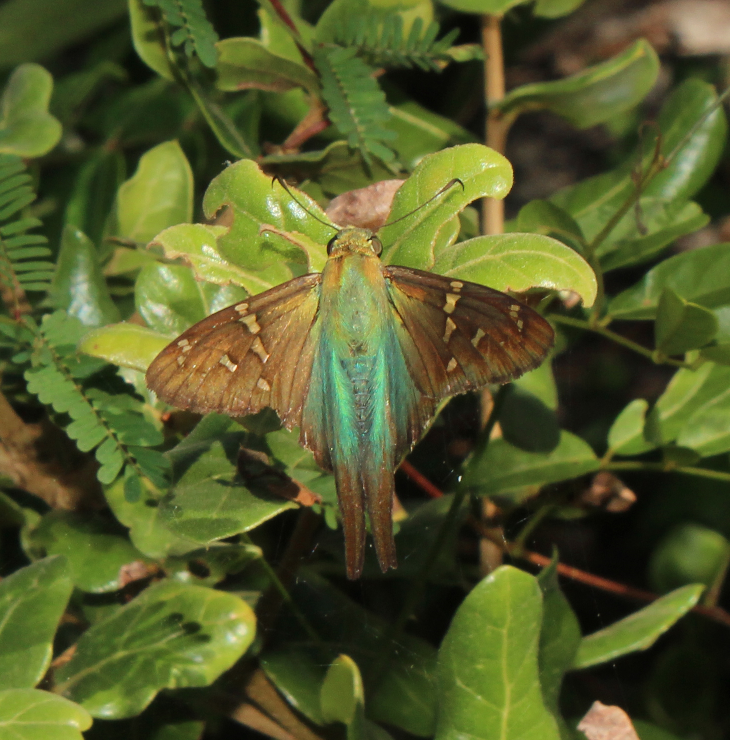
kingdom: Animalia
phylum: Arthropoda
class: Insecta
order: Lepidoptera
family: Hesperiidae
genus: Urbanus
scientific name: Urbanus proteus
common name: Long-tailed skipper
